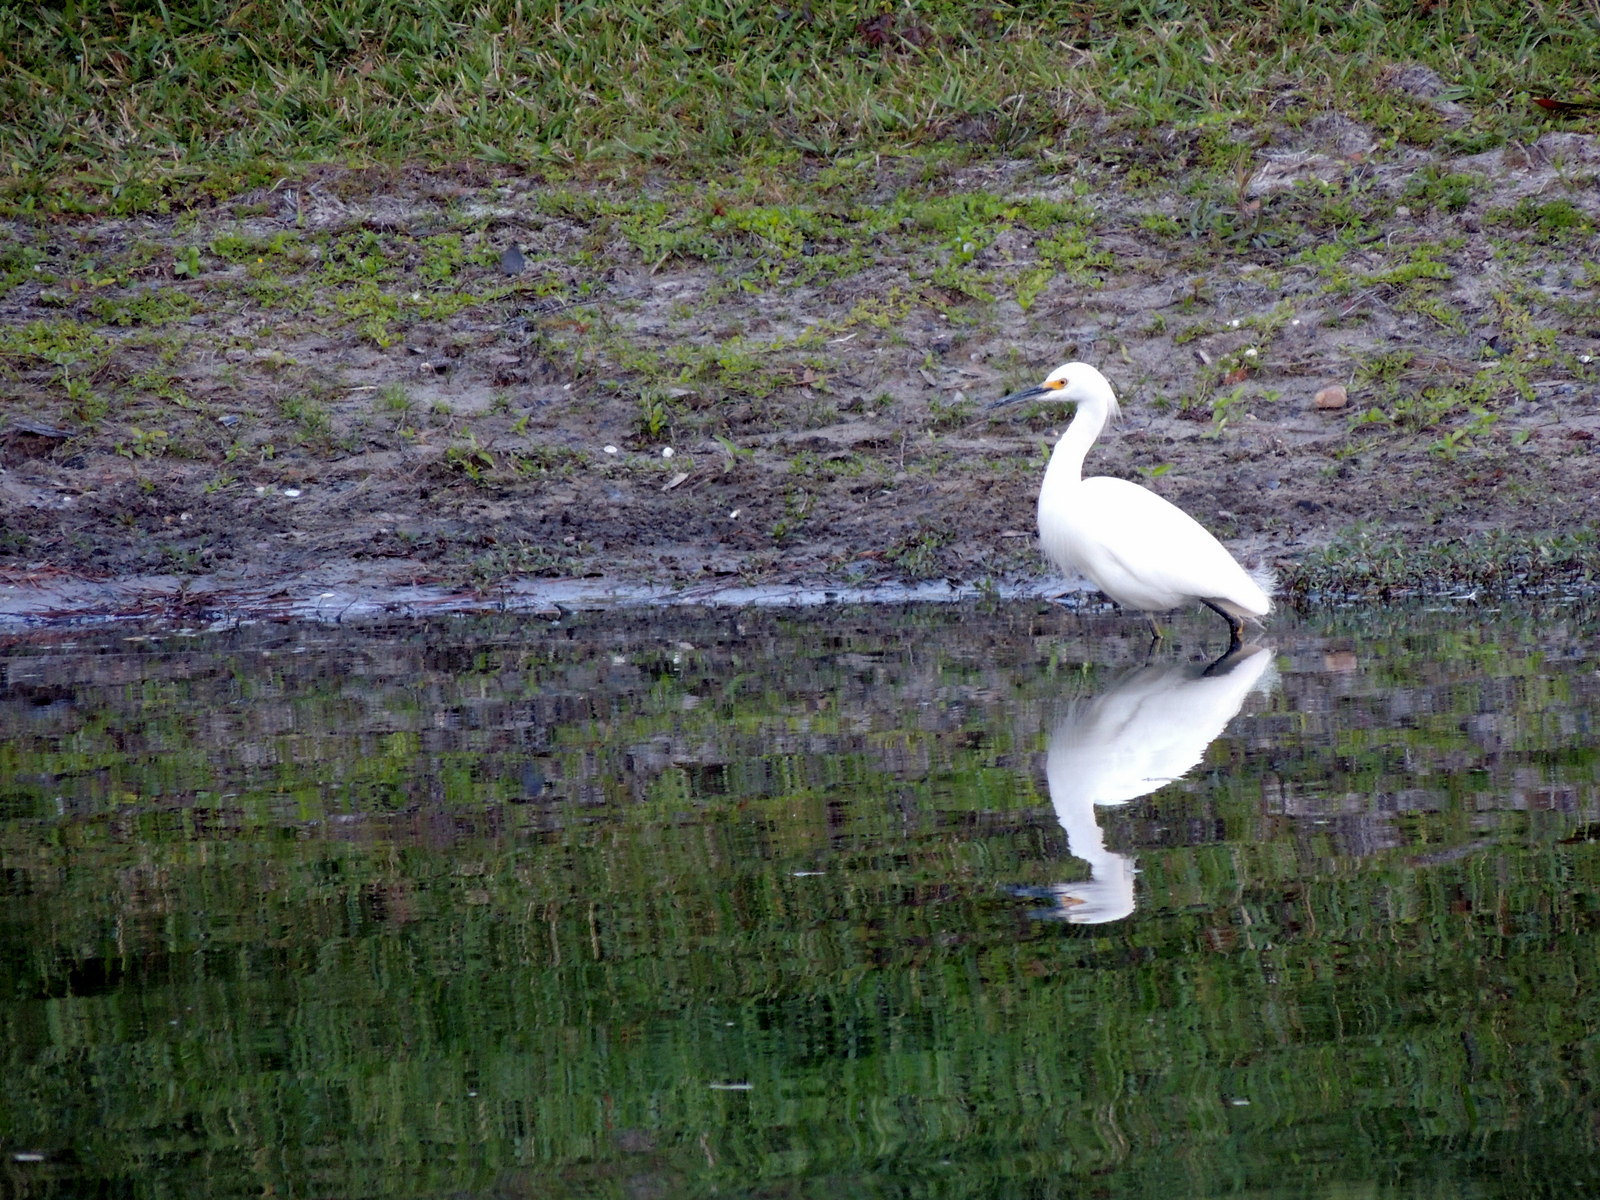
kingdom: Animalia
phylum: Chordata
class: Aves
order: Pelecaniformes
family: Ardeidae
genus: Egretta
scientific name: Egretta thula
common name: Snowy egret
